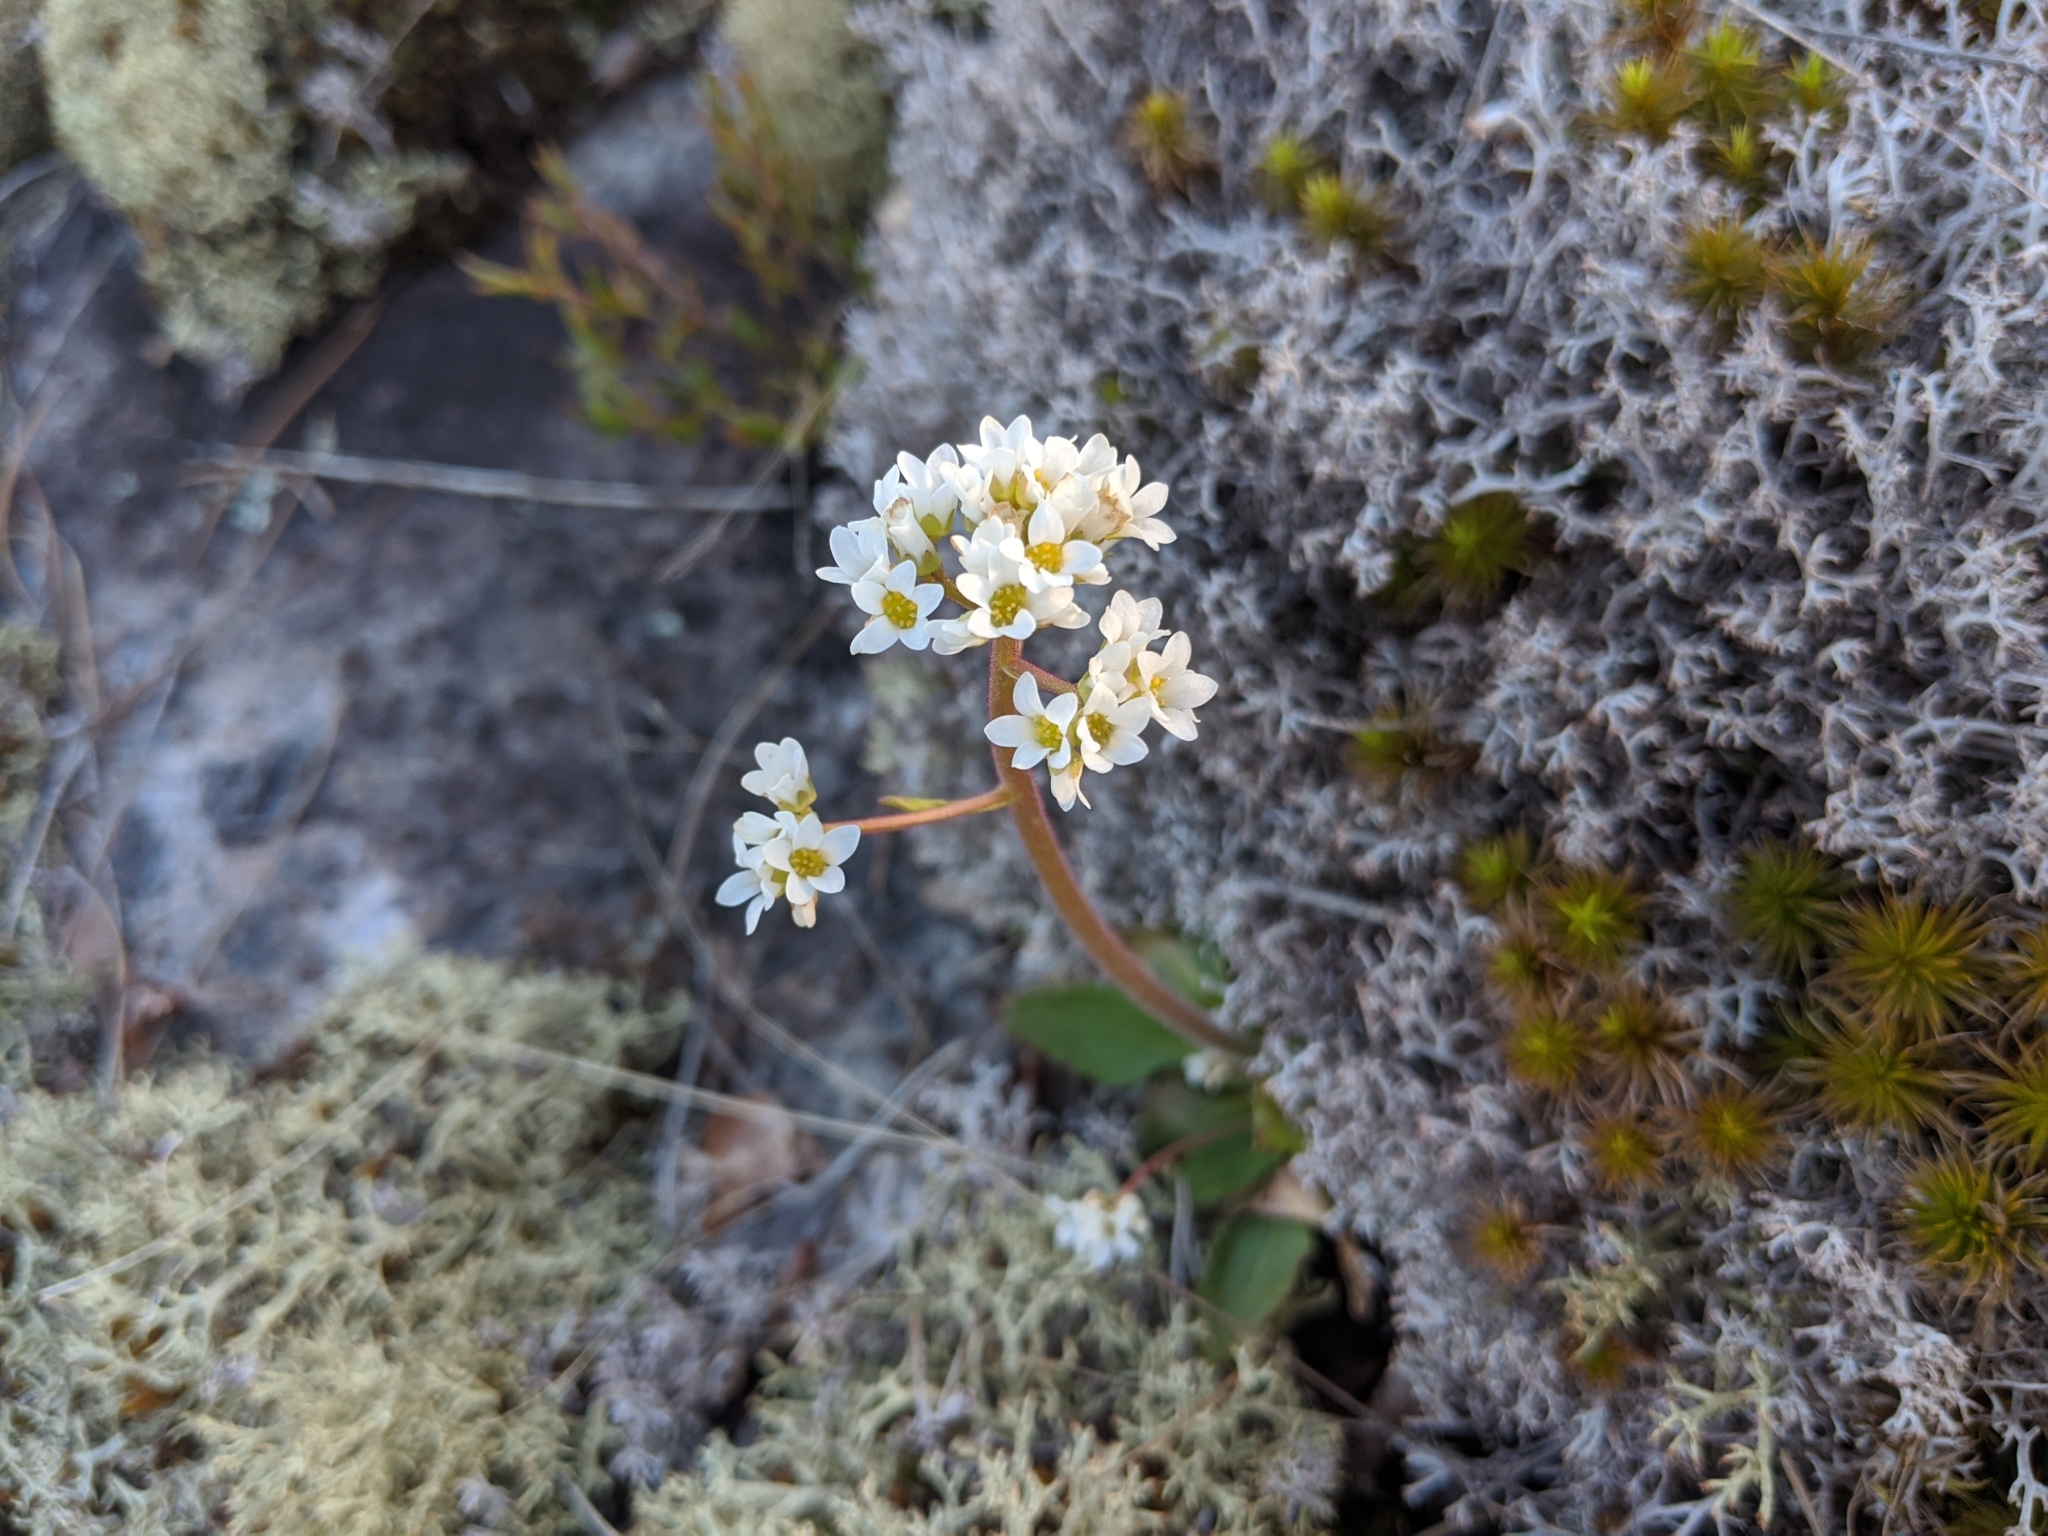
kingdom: Plantae
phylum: Tracheophyta
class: Magnoliopsida
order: Saxifragales
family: Saxifragaceae
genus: Micranthes
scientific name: Micranthes virginiensis
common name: Early saxifrage
